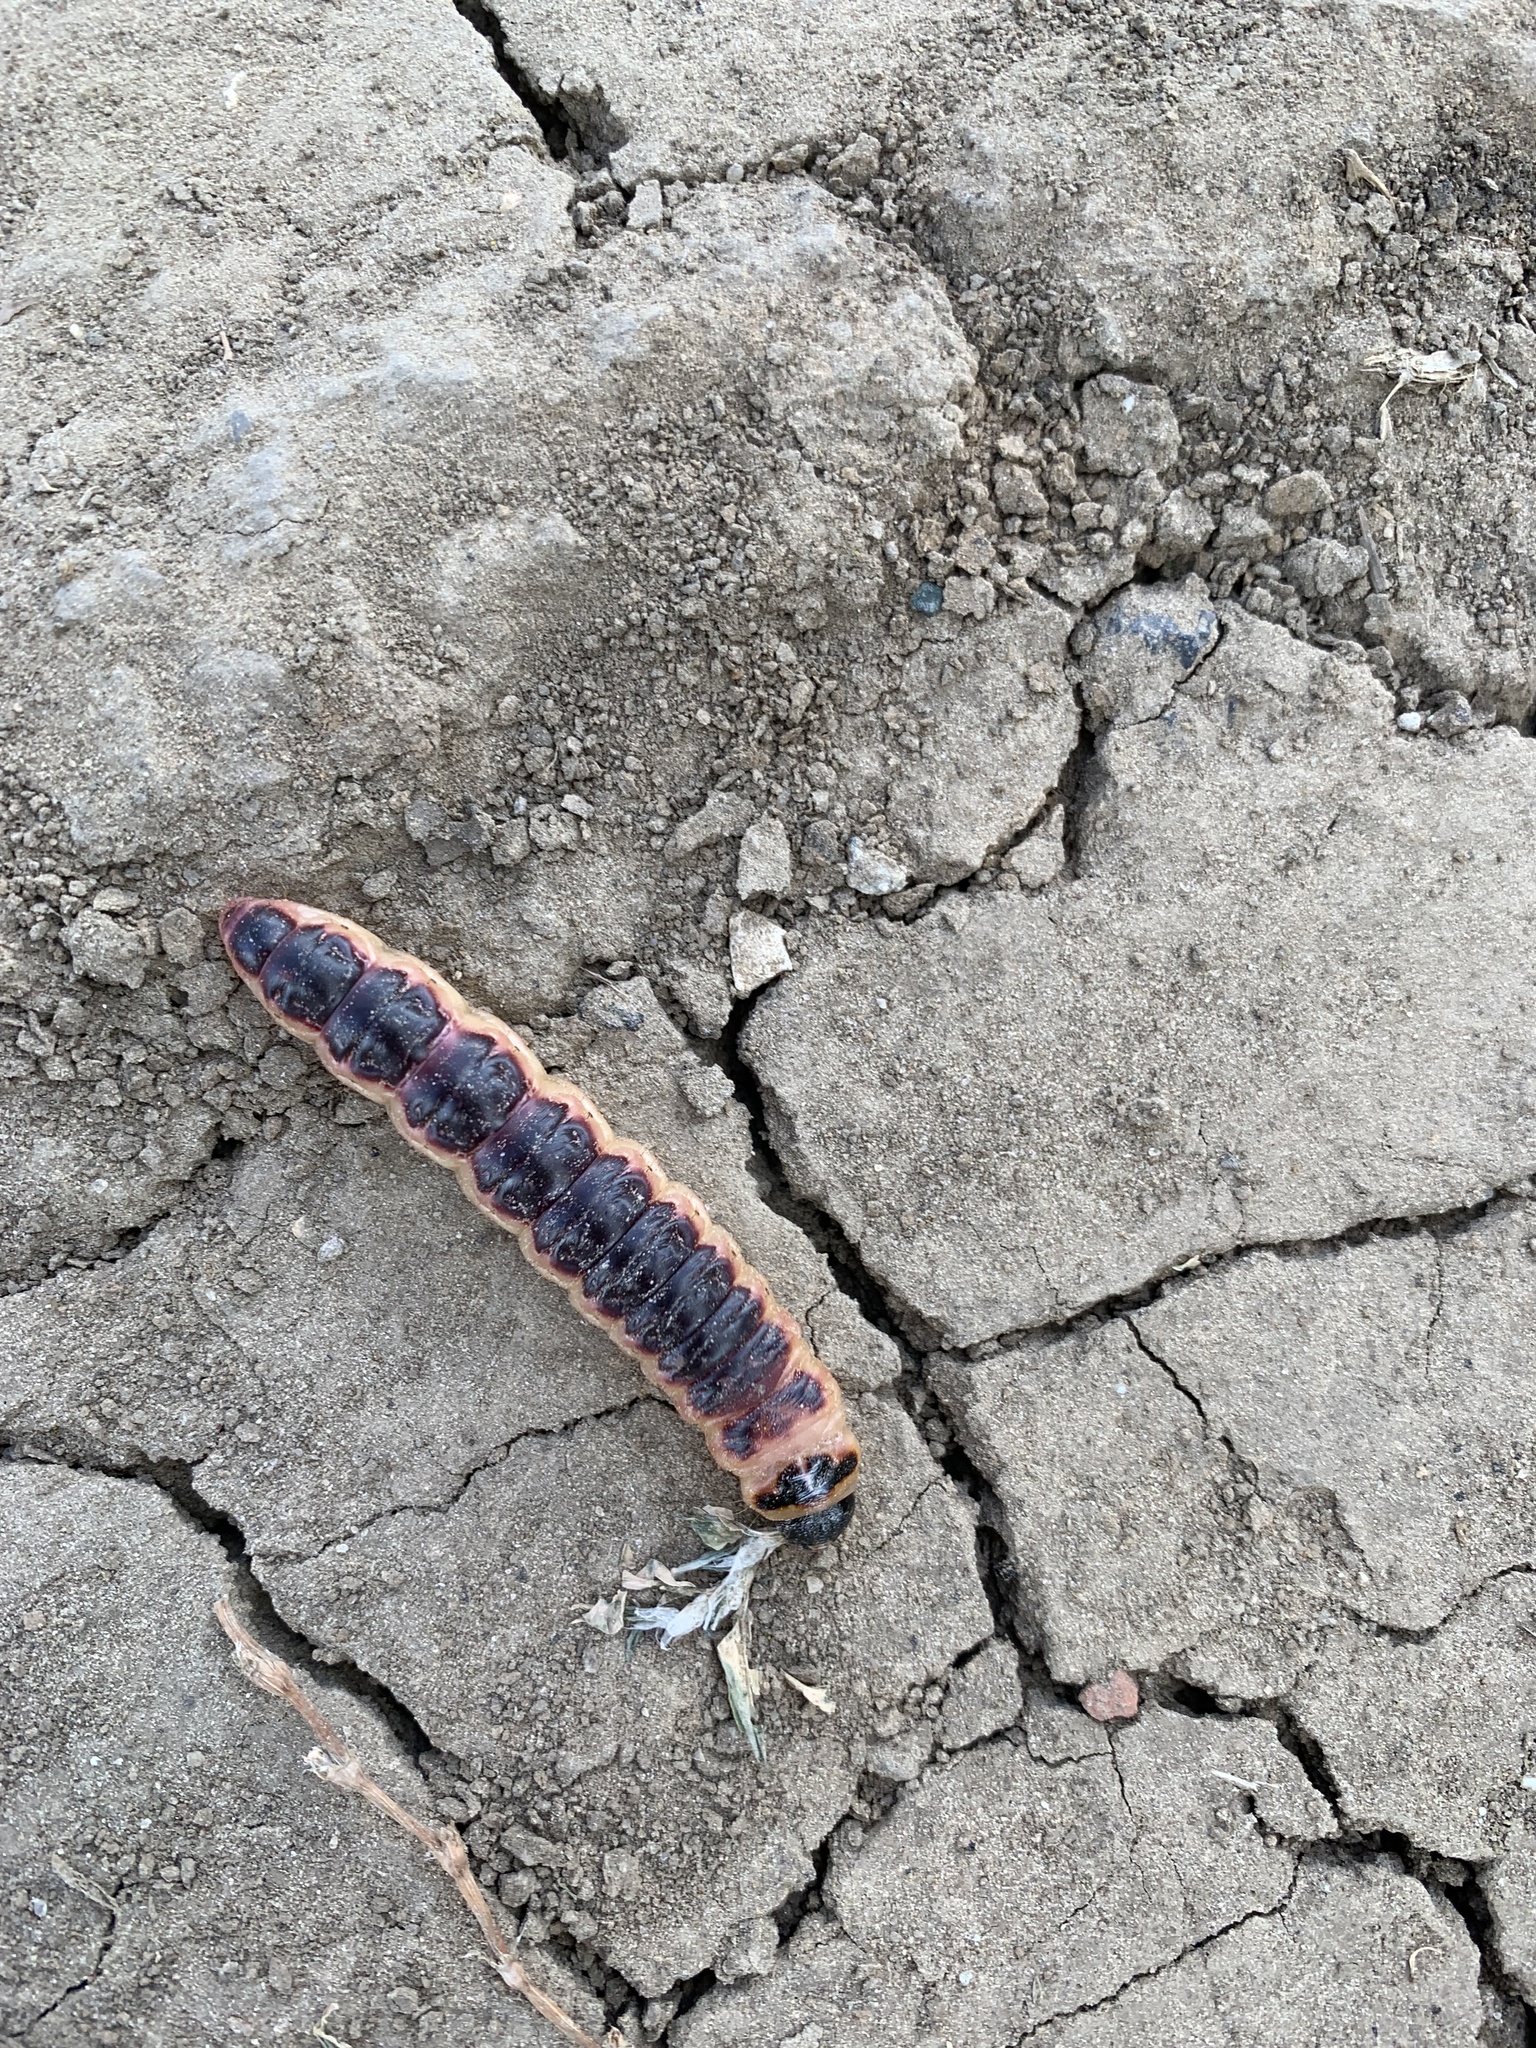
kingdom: Animalia
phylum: Arthropoda
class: Insecta
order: Lepidoptera
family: Cossidae
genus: Cossus
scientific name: Cossus cossus
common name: Goat moth
